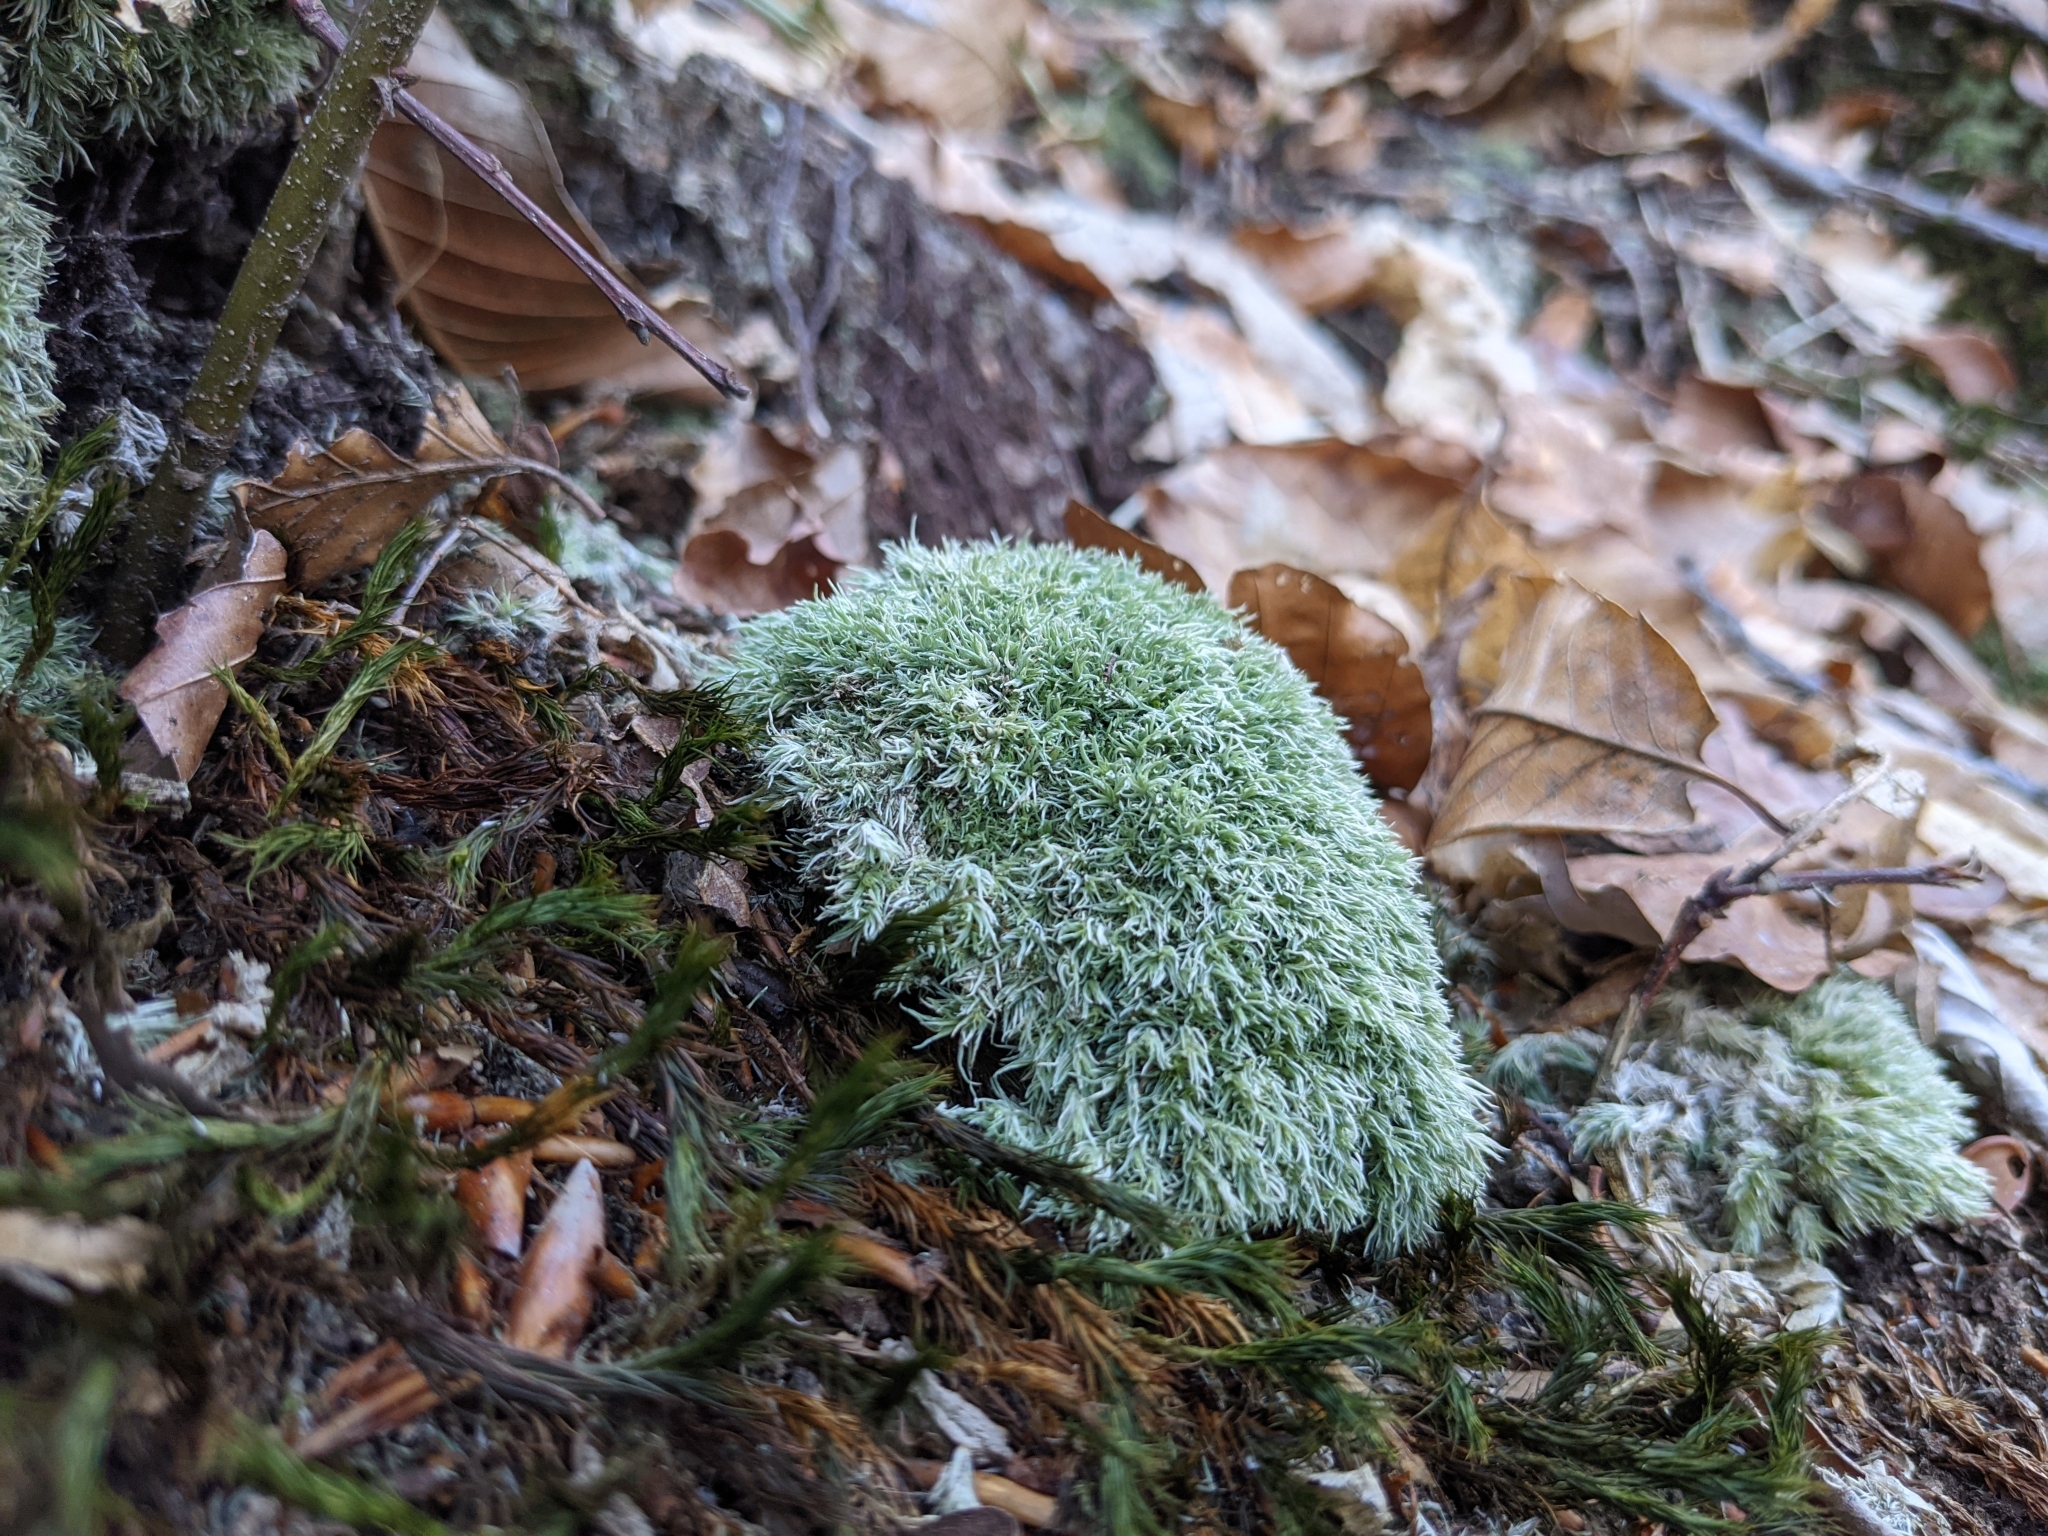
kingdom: Plantae
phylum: Bryophyta
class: Bryopsida
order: Dicranales
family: Leucobryaceae
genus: Leucobryum
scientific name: Leucobryum glaucum
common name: Large white-moss
